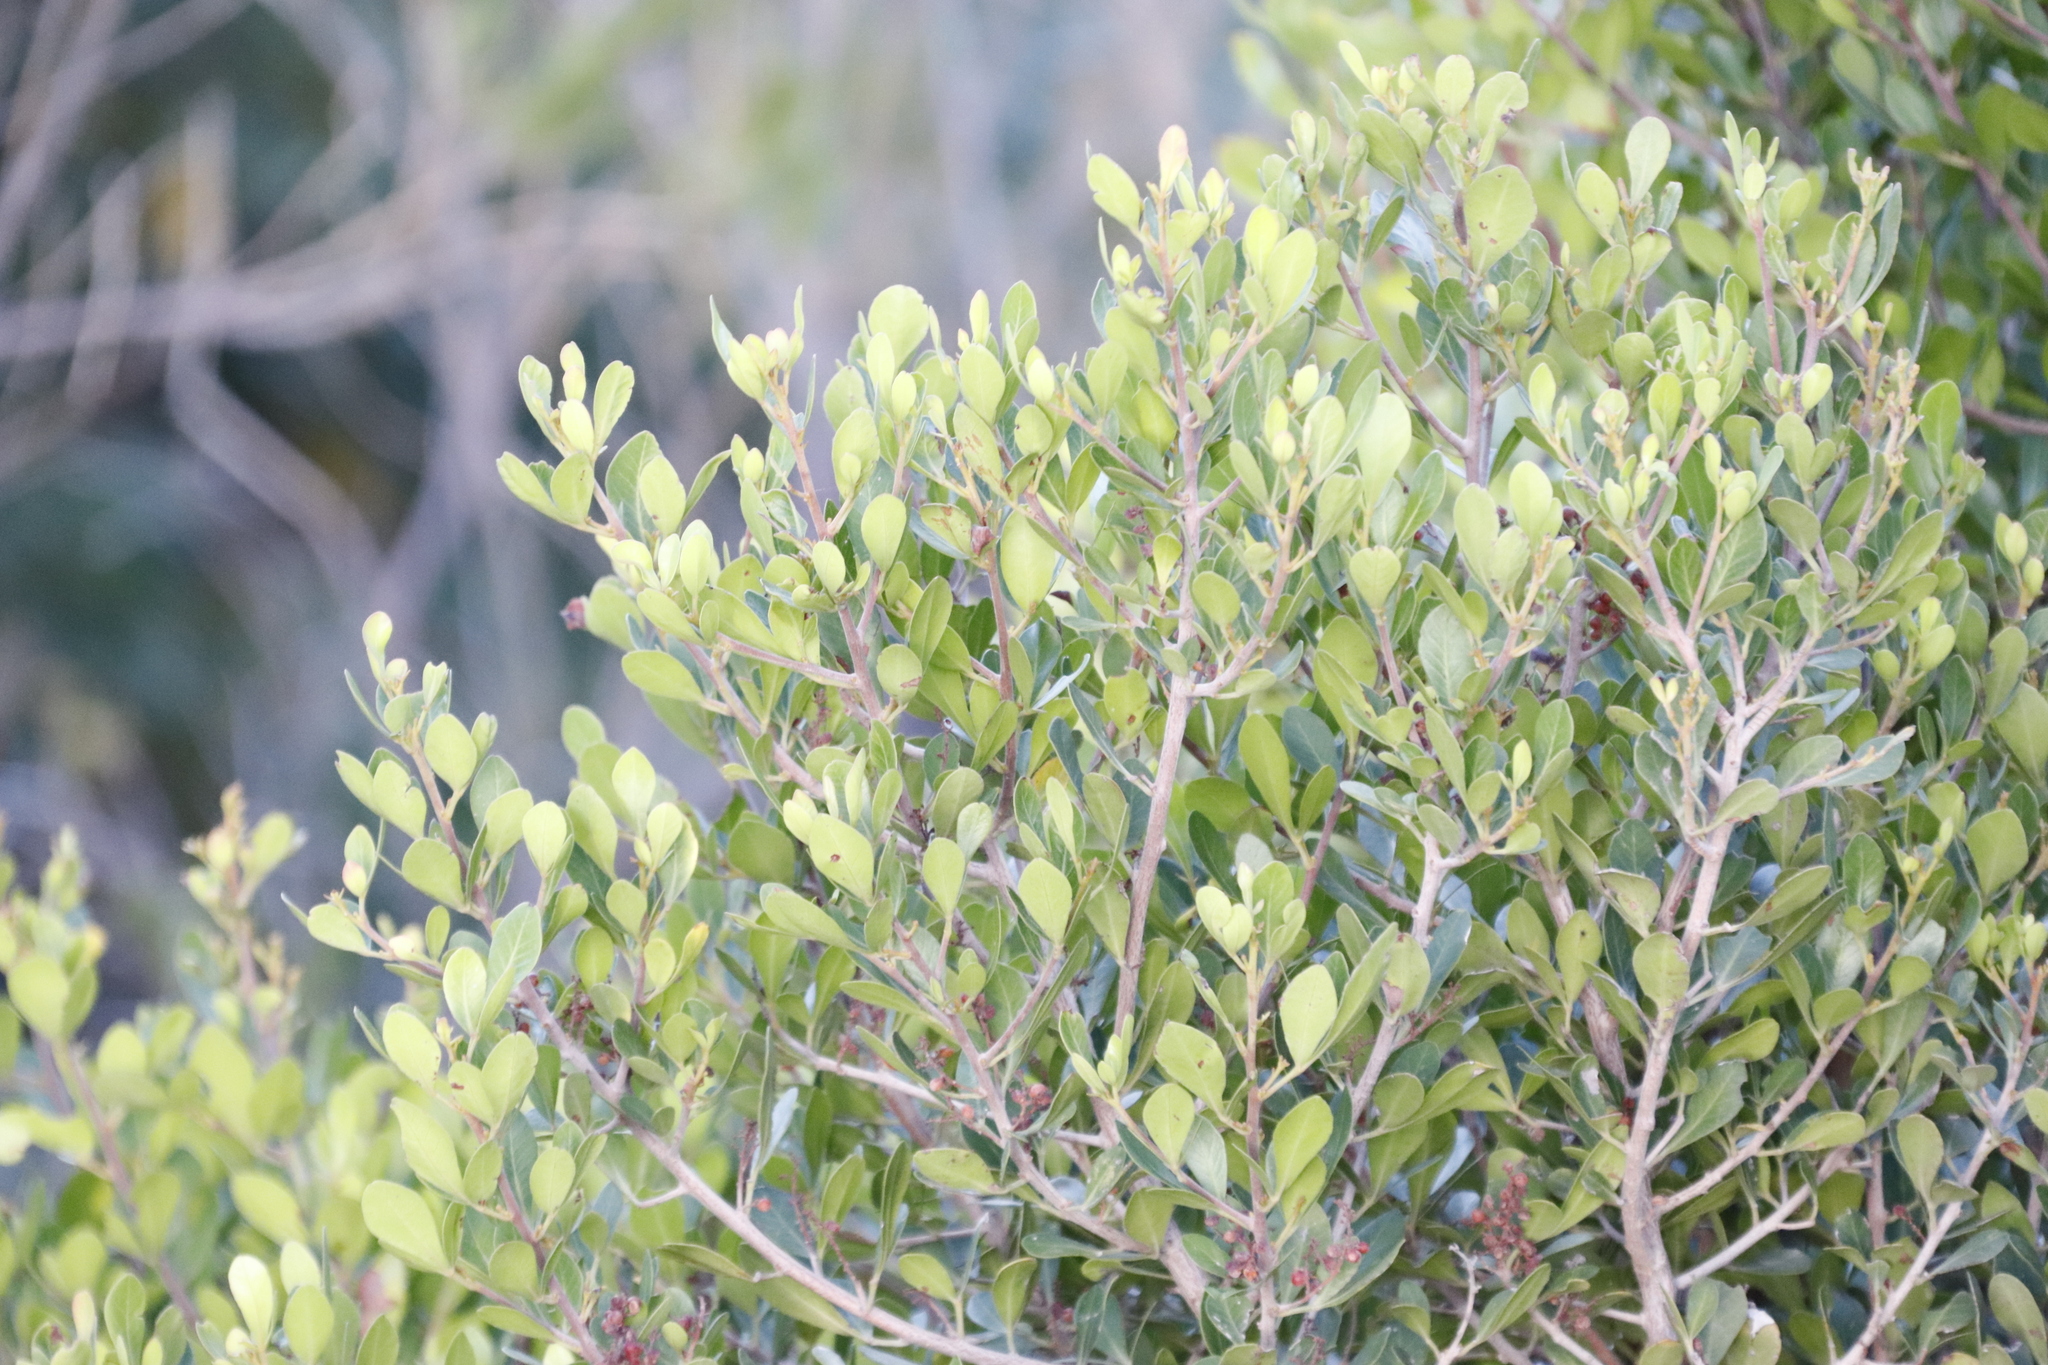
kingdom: Plantae
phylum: Tracheophyta
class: Magnoliopsida
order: Sapindales
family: Anacardiaceae
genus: Searsia
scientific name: Searsia lucida
